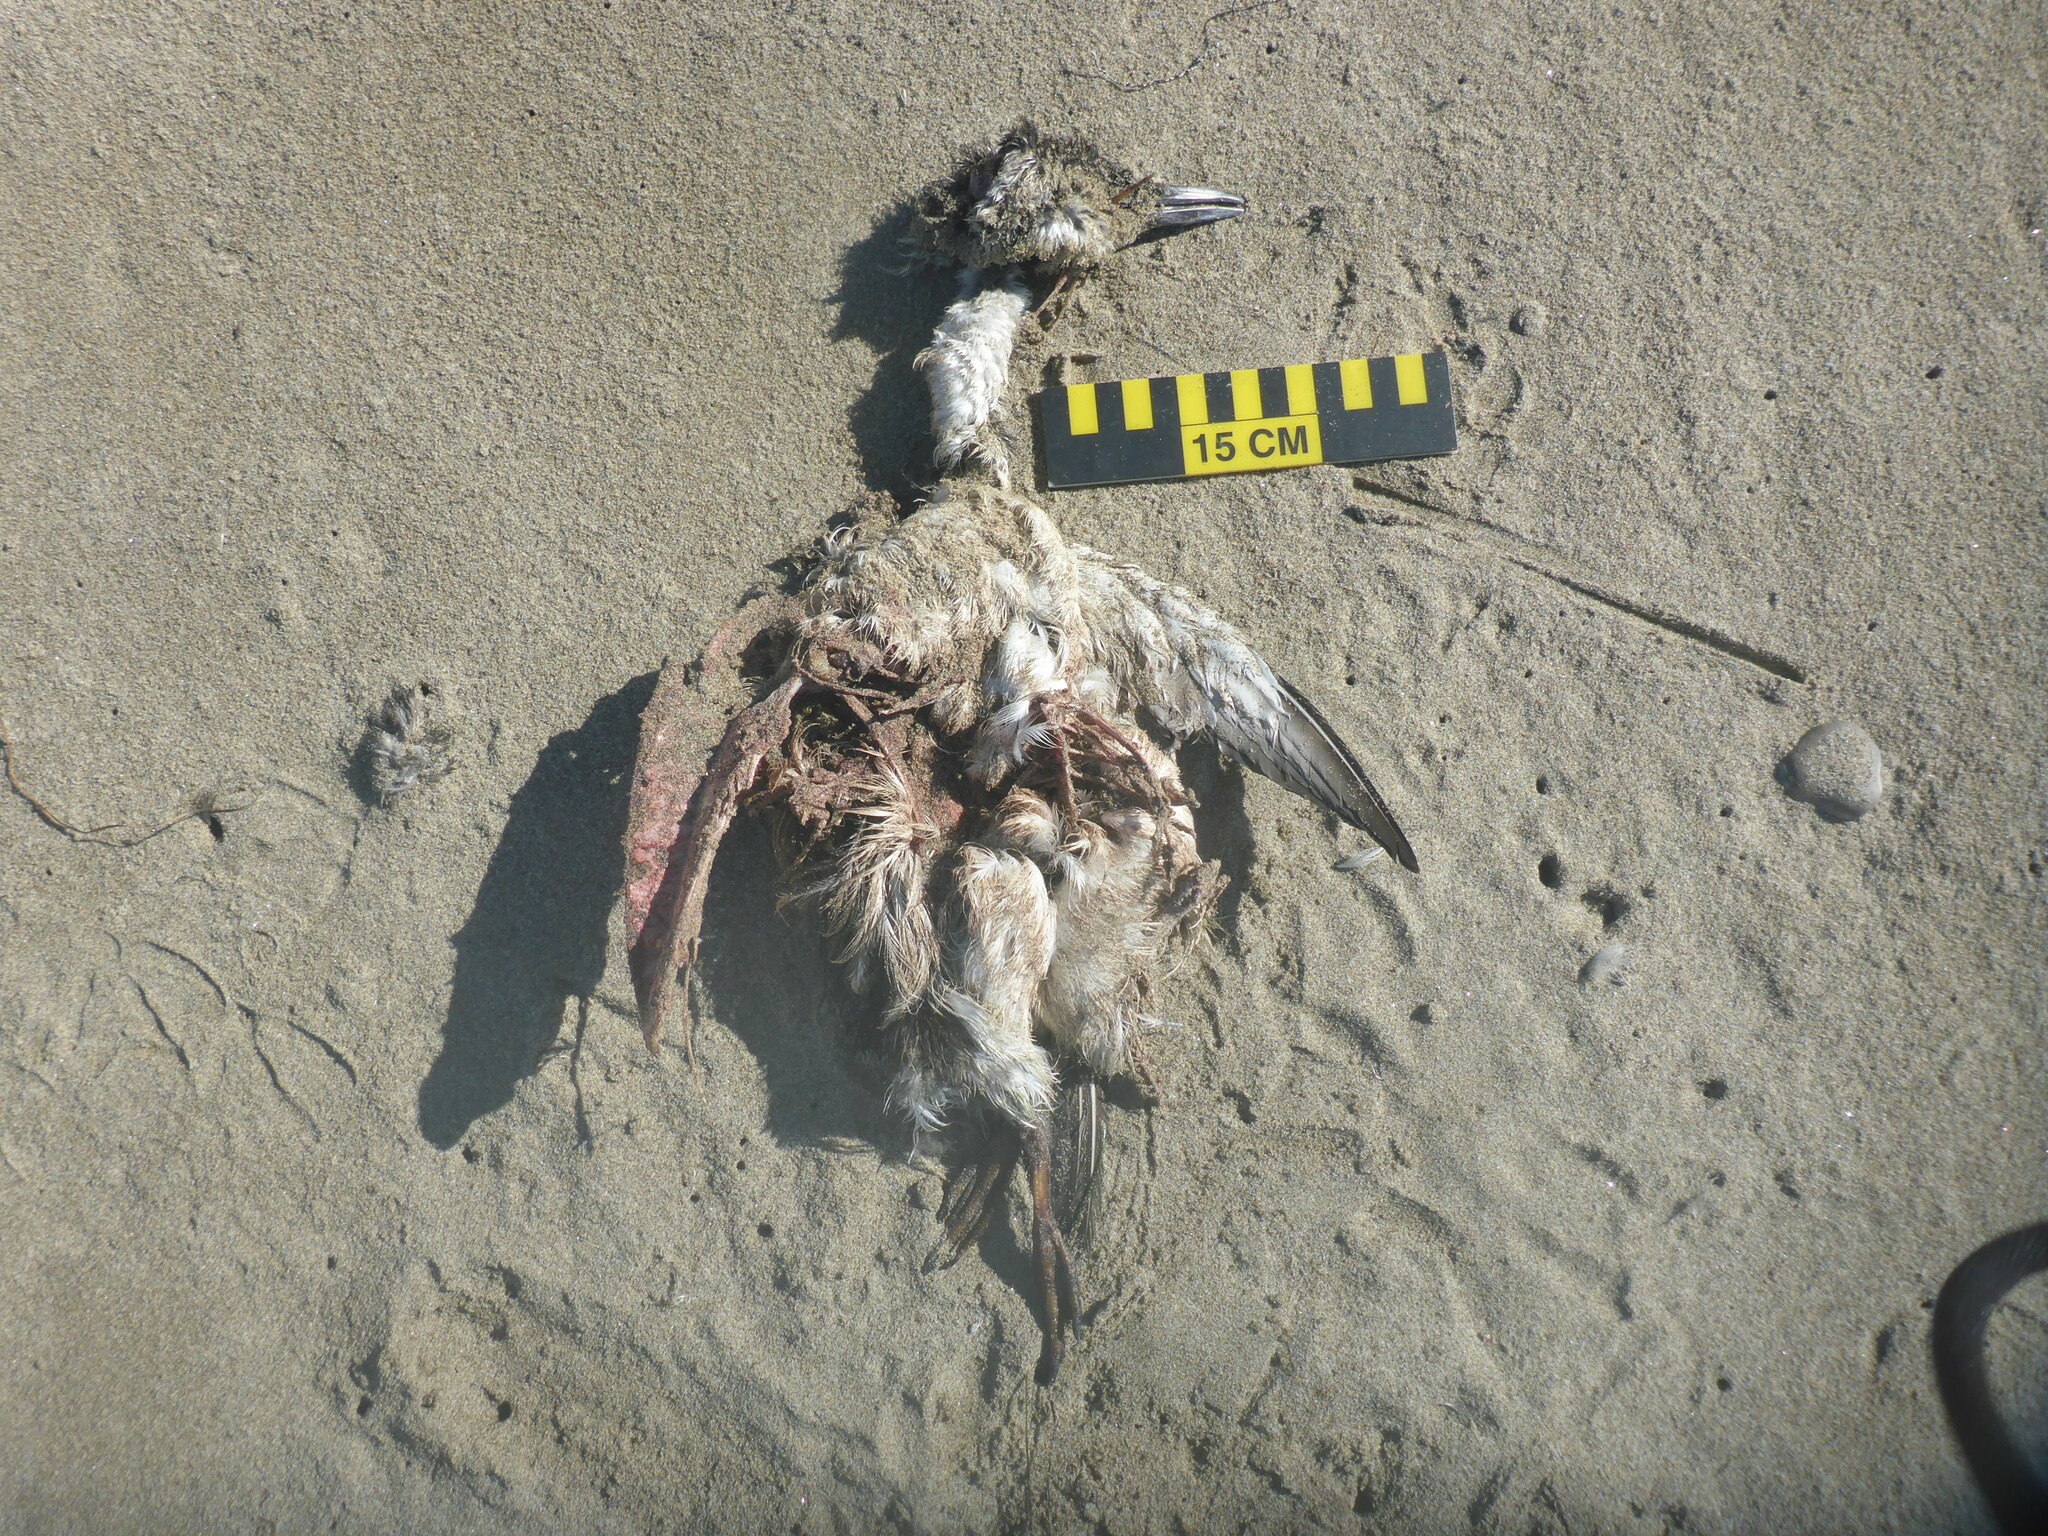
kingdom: Animalia
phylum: Chordata
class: Aves
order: Charadriiformes
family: Alcidae
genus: Uria
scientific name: Uria aalge
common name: Common murre
